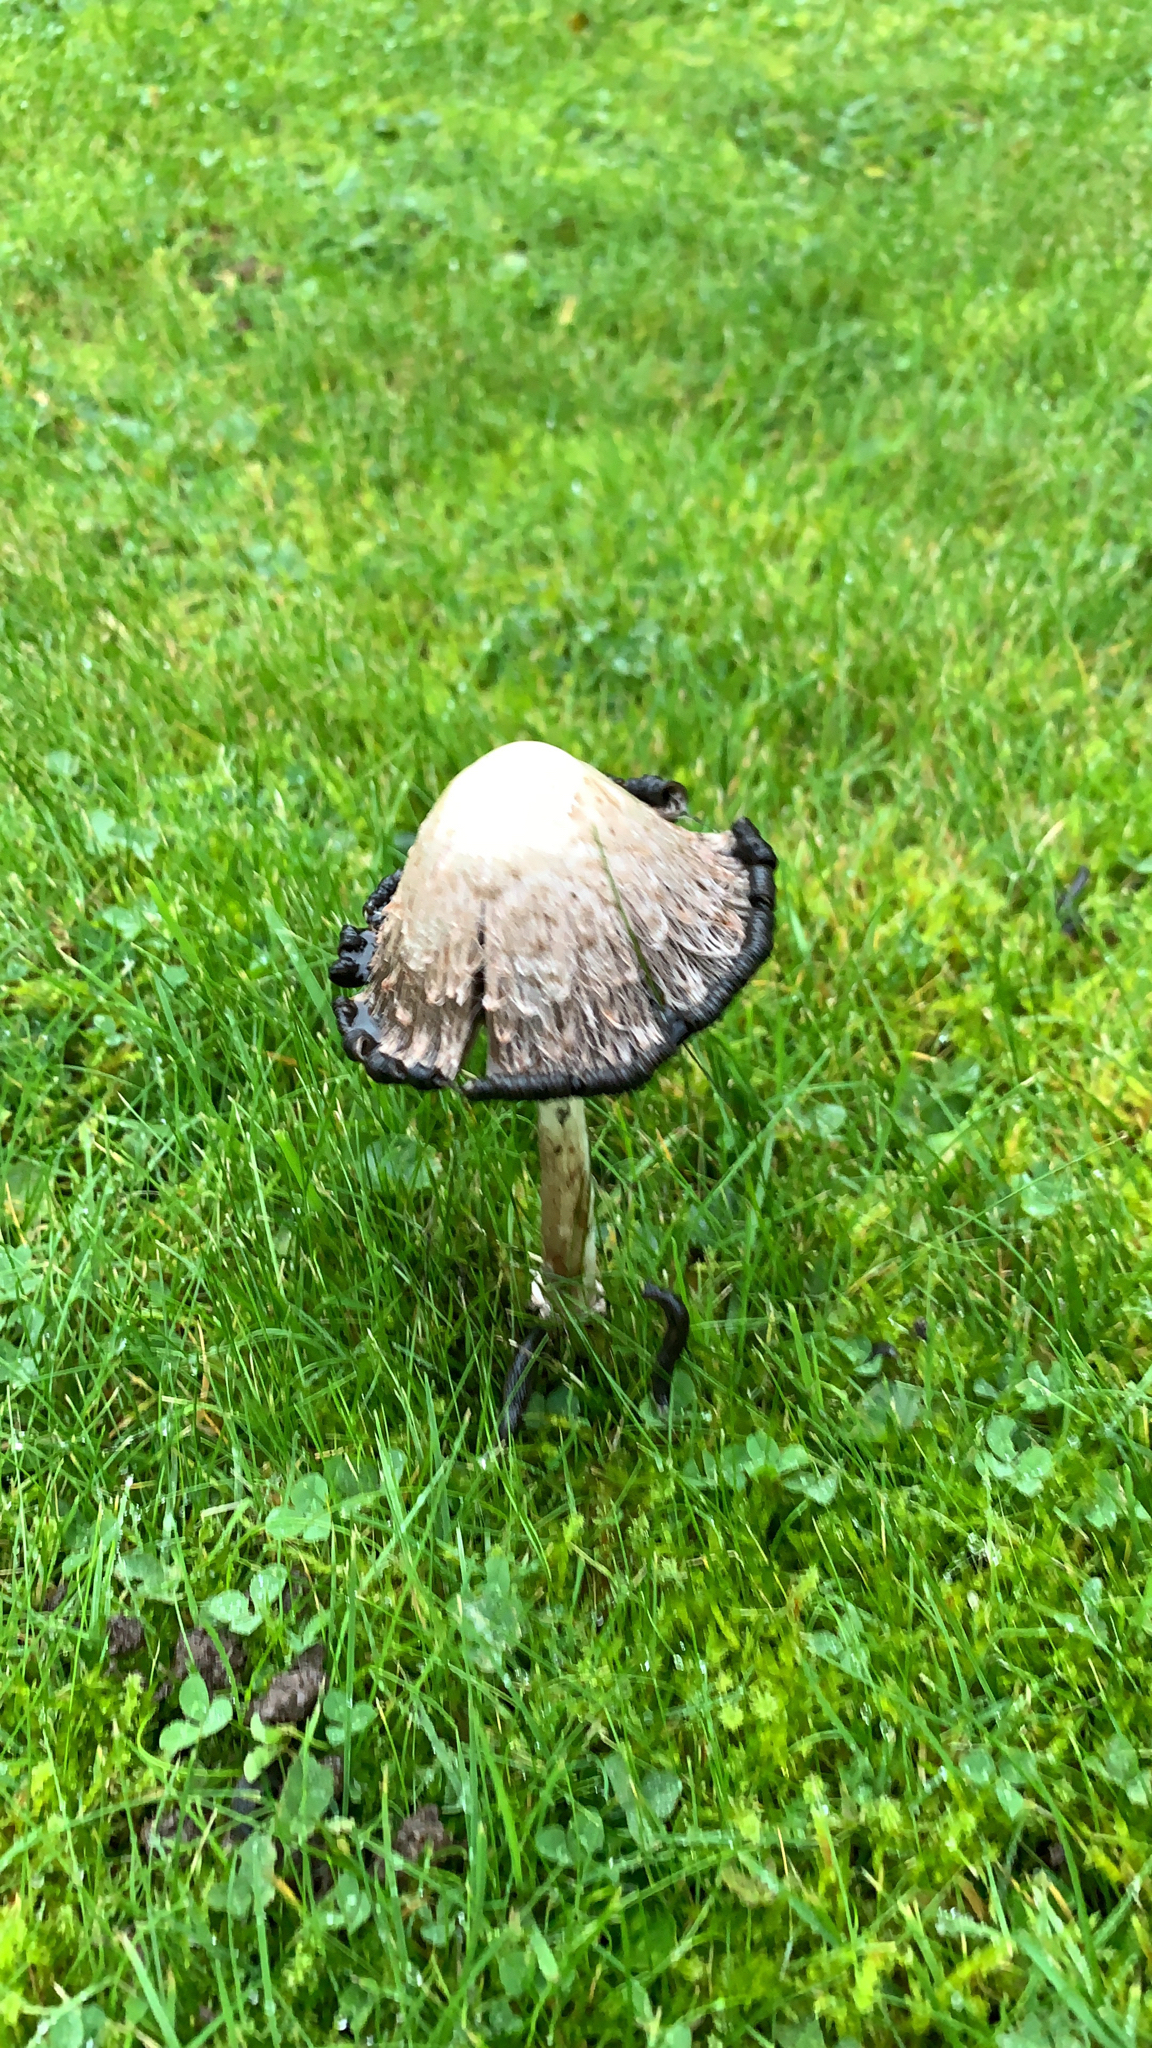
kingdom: Fungi
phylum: Basidiomycota
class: Agaricomycetes
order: Agaricales
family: Agaricaceae
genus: Coprinus
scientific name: Coprinus comatus
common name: Lawyer's wig
